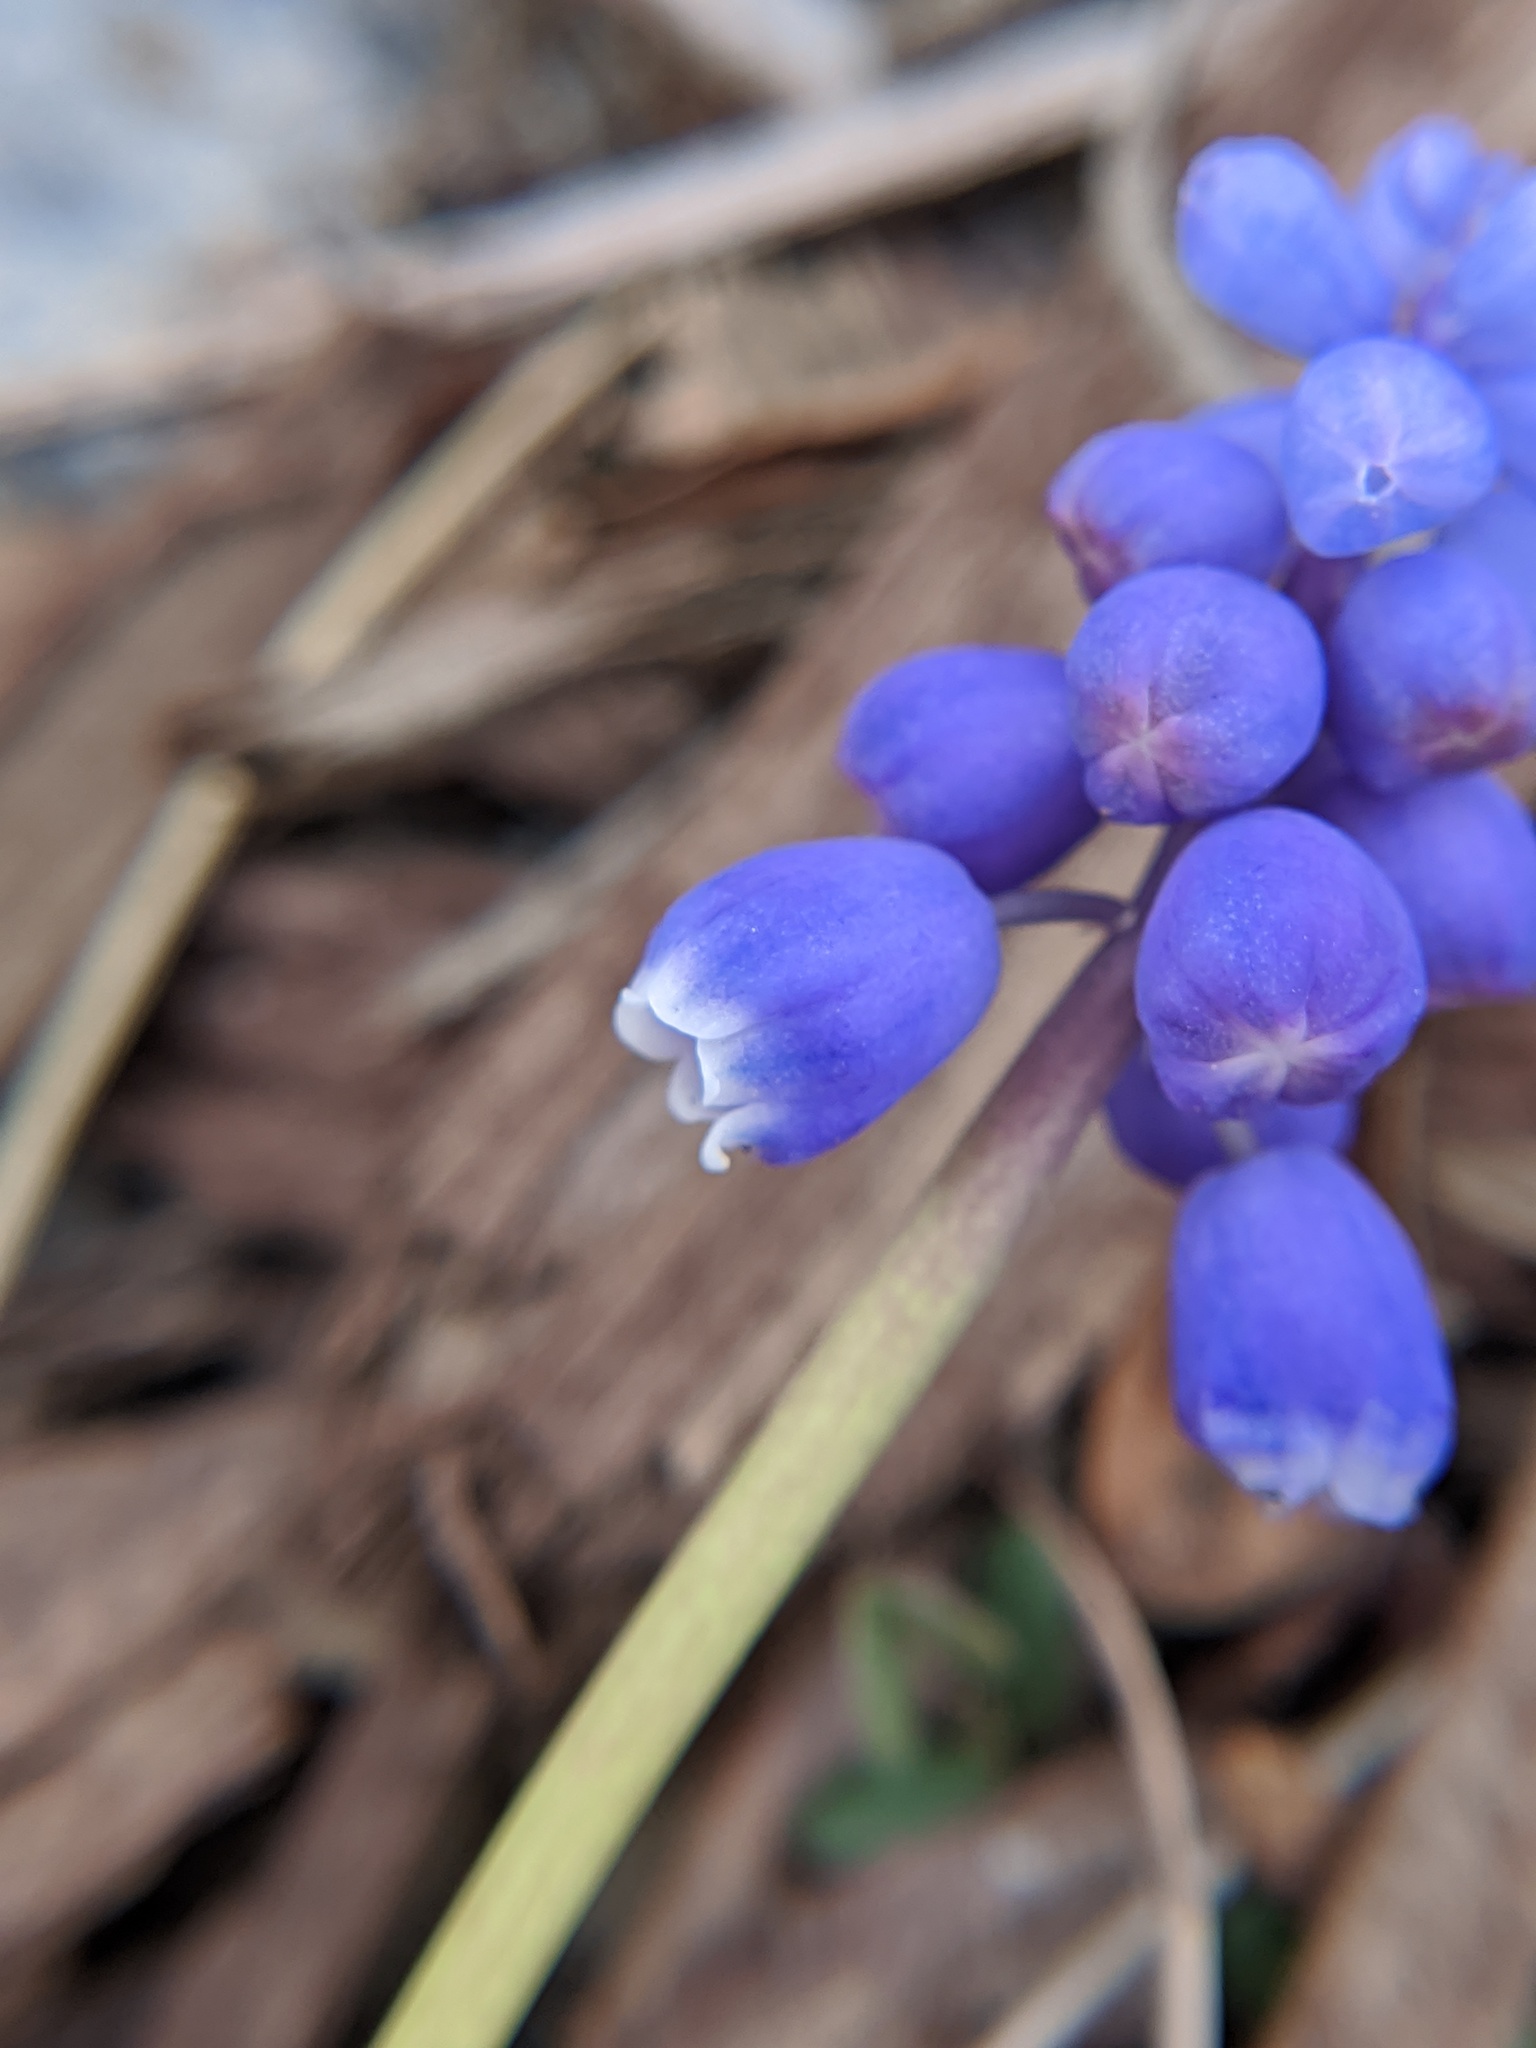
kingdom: Plantae
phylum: Tracheophyta
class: Liliopsida
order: Asparagales
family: Asparagaceae
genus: Muscari
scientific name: Muscari neglectum
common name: Grape-hyacinth
